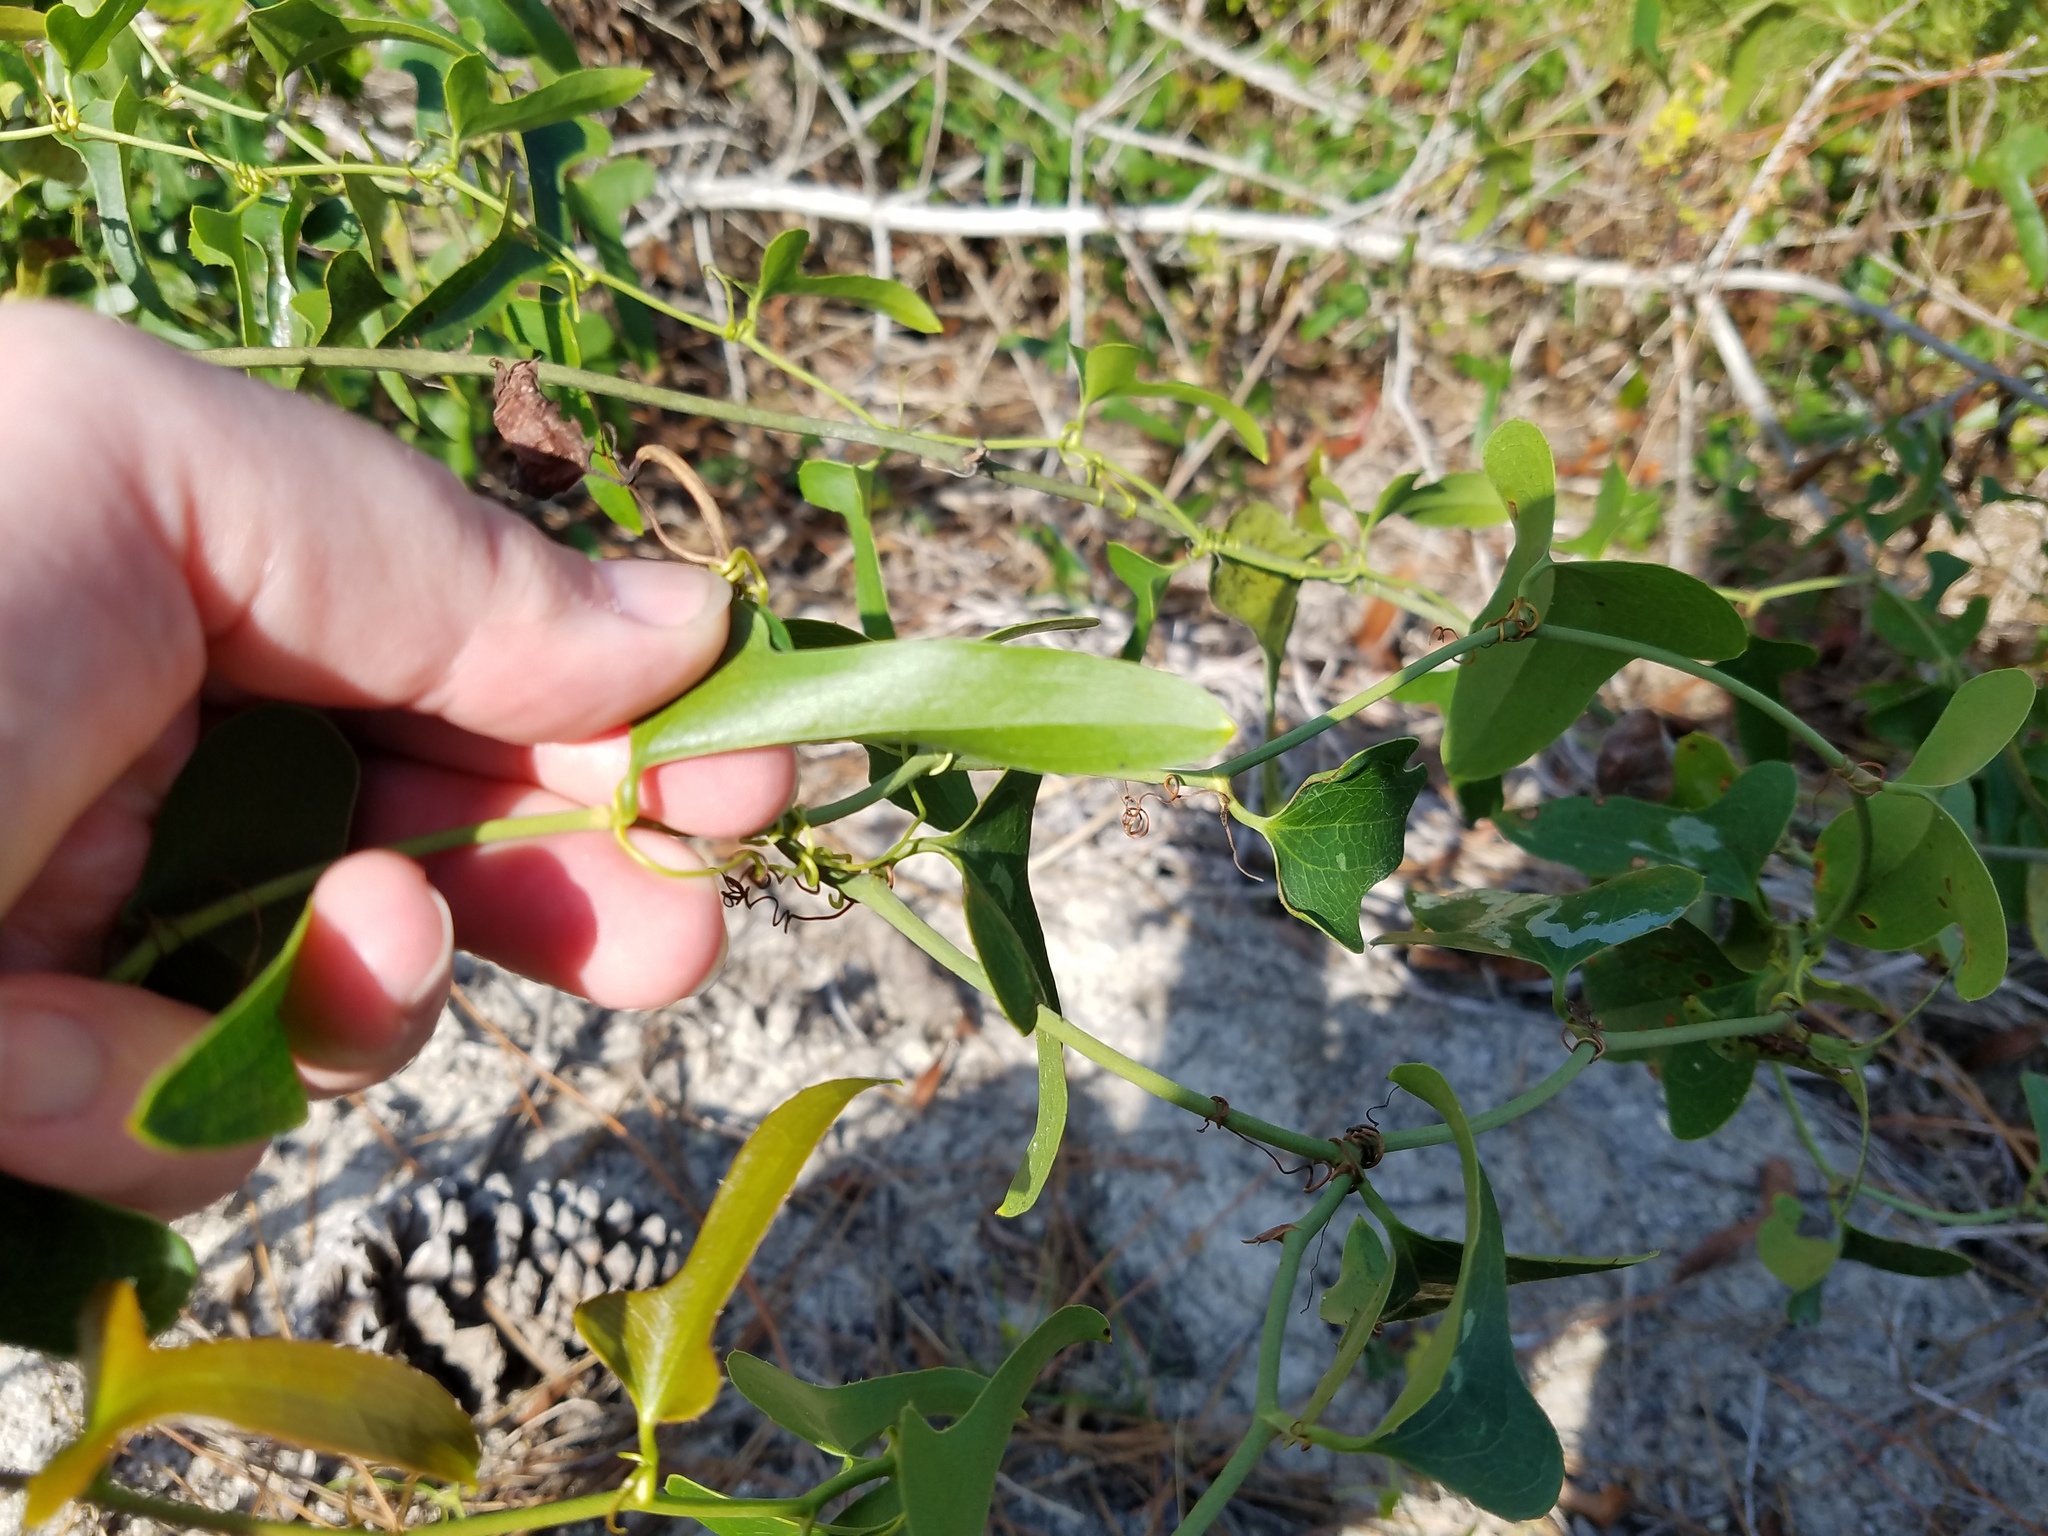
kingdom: Plantae
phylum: Tracheophyta
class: Liliopsida
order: Liliales
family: Smilacaceae
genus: Smilax
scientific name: Smilax bona-nox
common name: Catbrier
